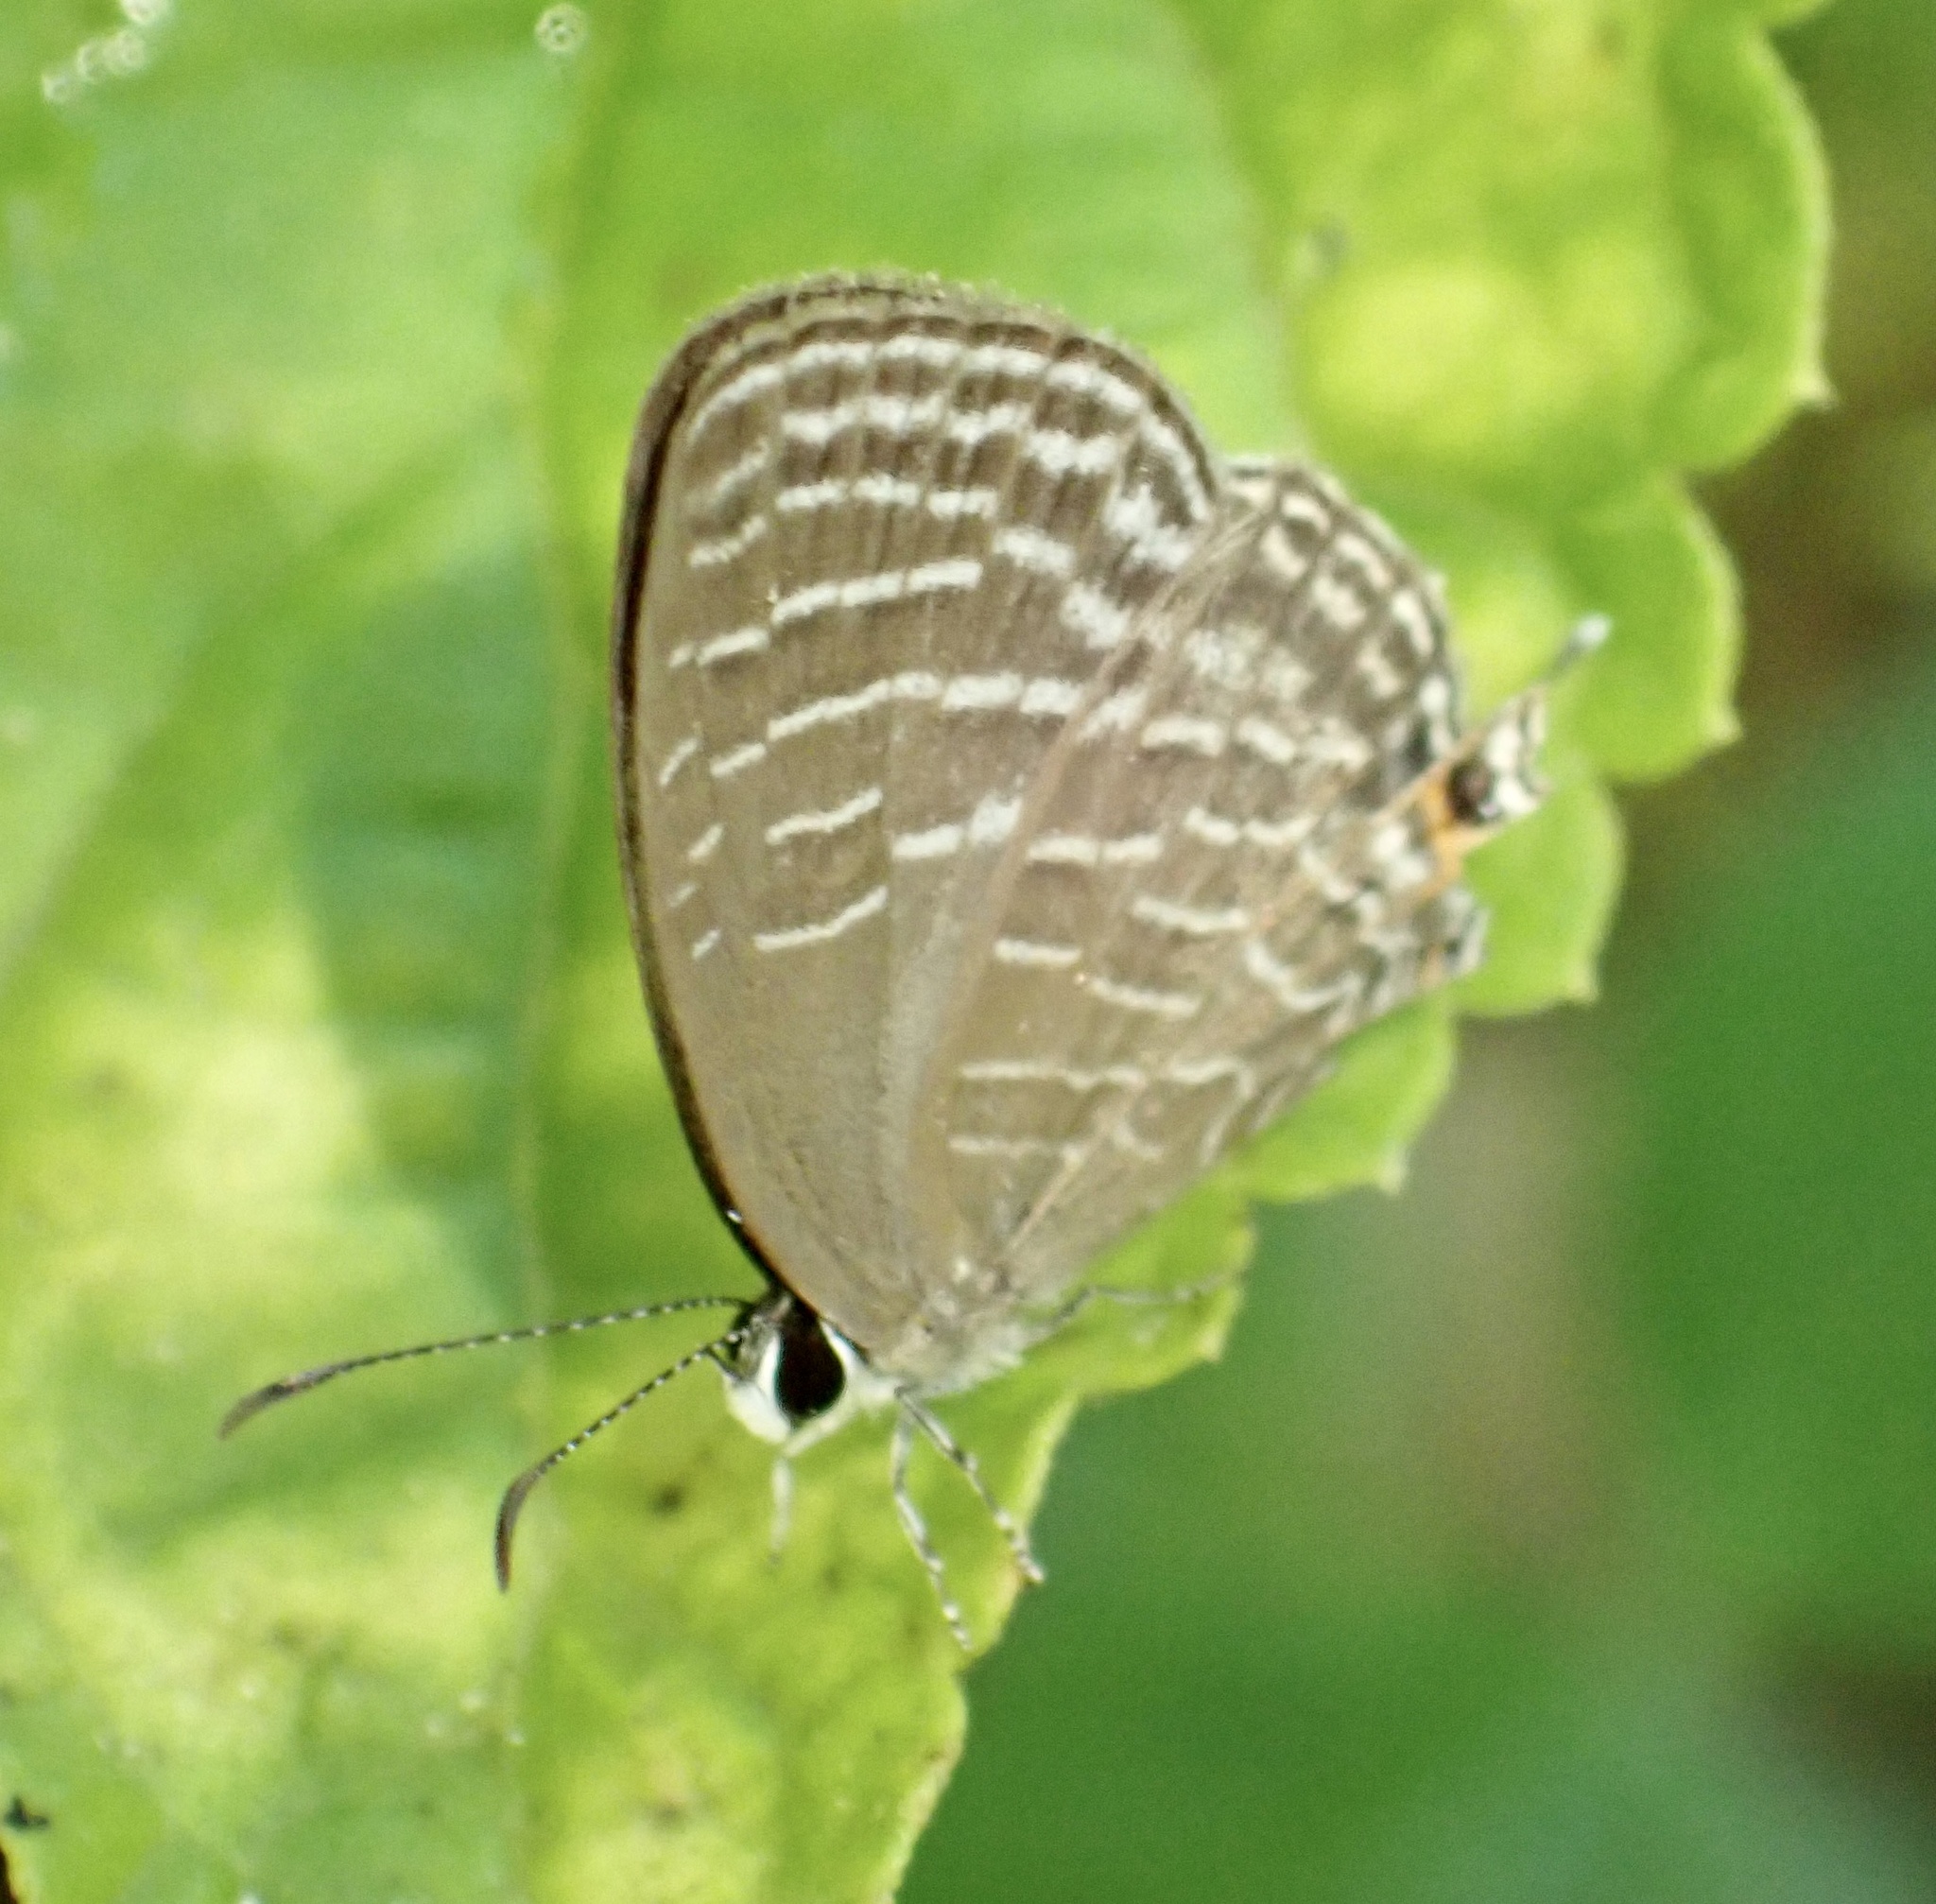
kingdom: Animalia
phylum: Arthropoda
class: Insecta
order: Lepidoptera
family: Lycaenidae
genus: Jamides
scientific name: Jamides celeno
